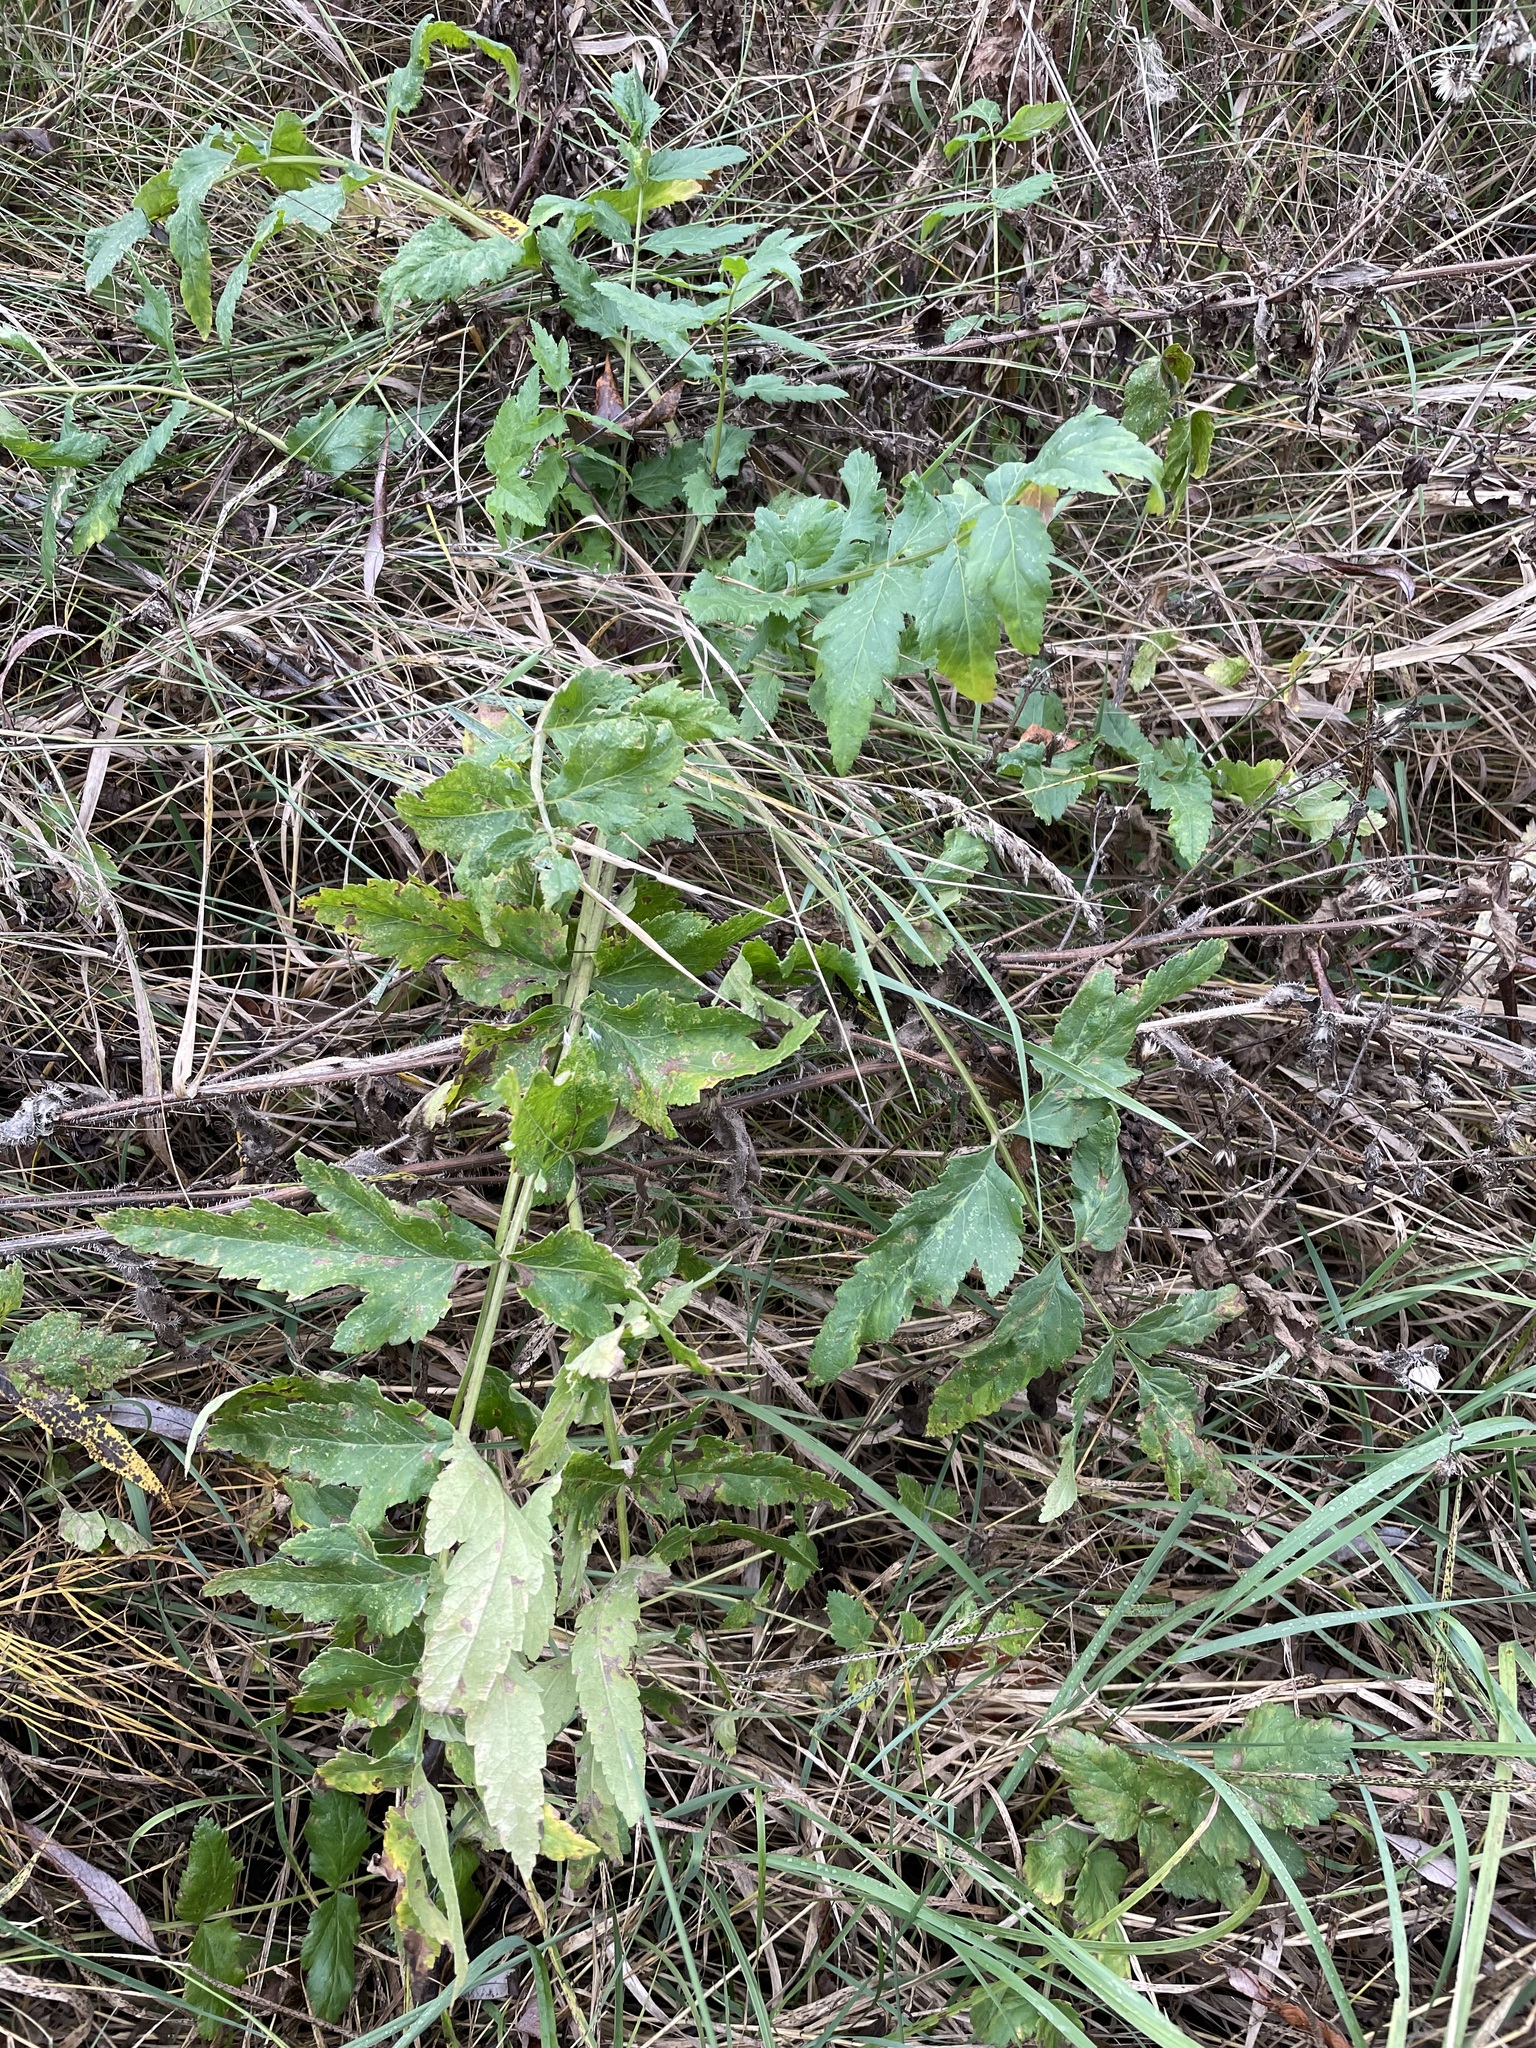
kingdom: Plantae
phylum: Tracheophyta
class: Magnoliopsida
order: Apiales
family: Apiaceae
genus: Pastinaca
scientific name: Pastinaca sativa
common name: Wild parsnip
